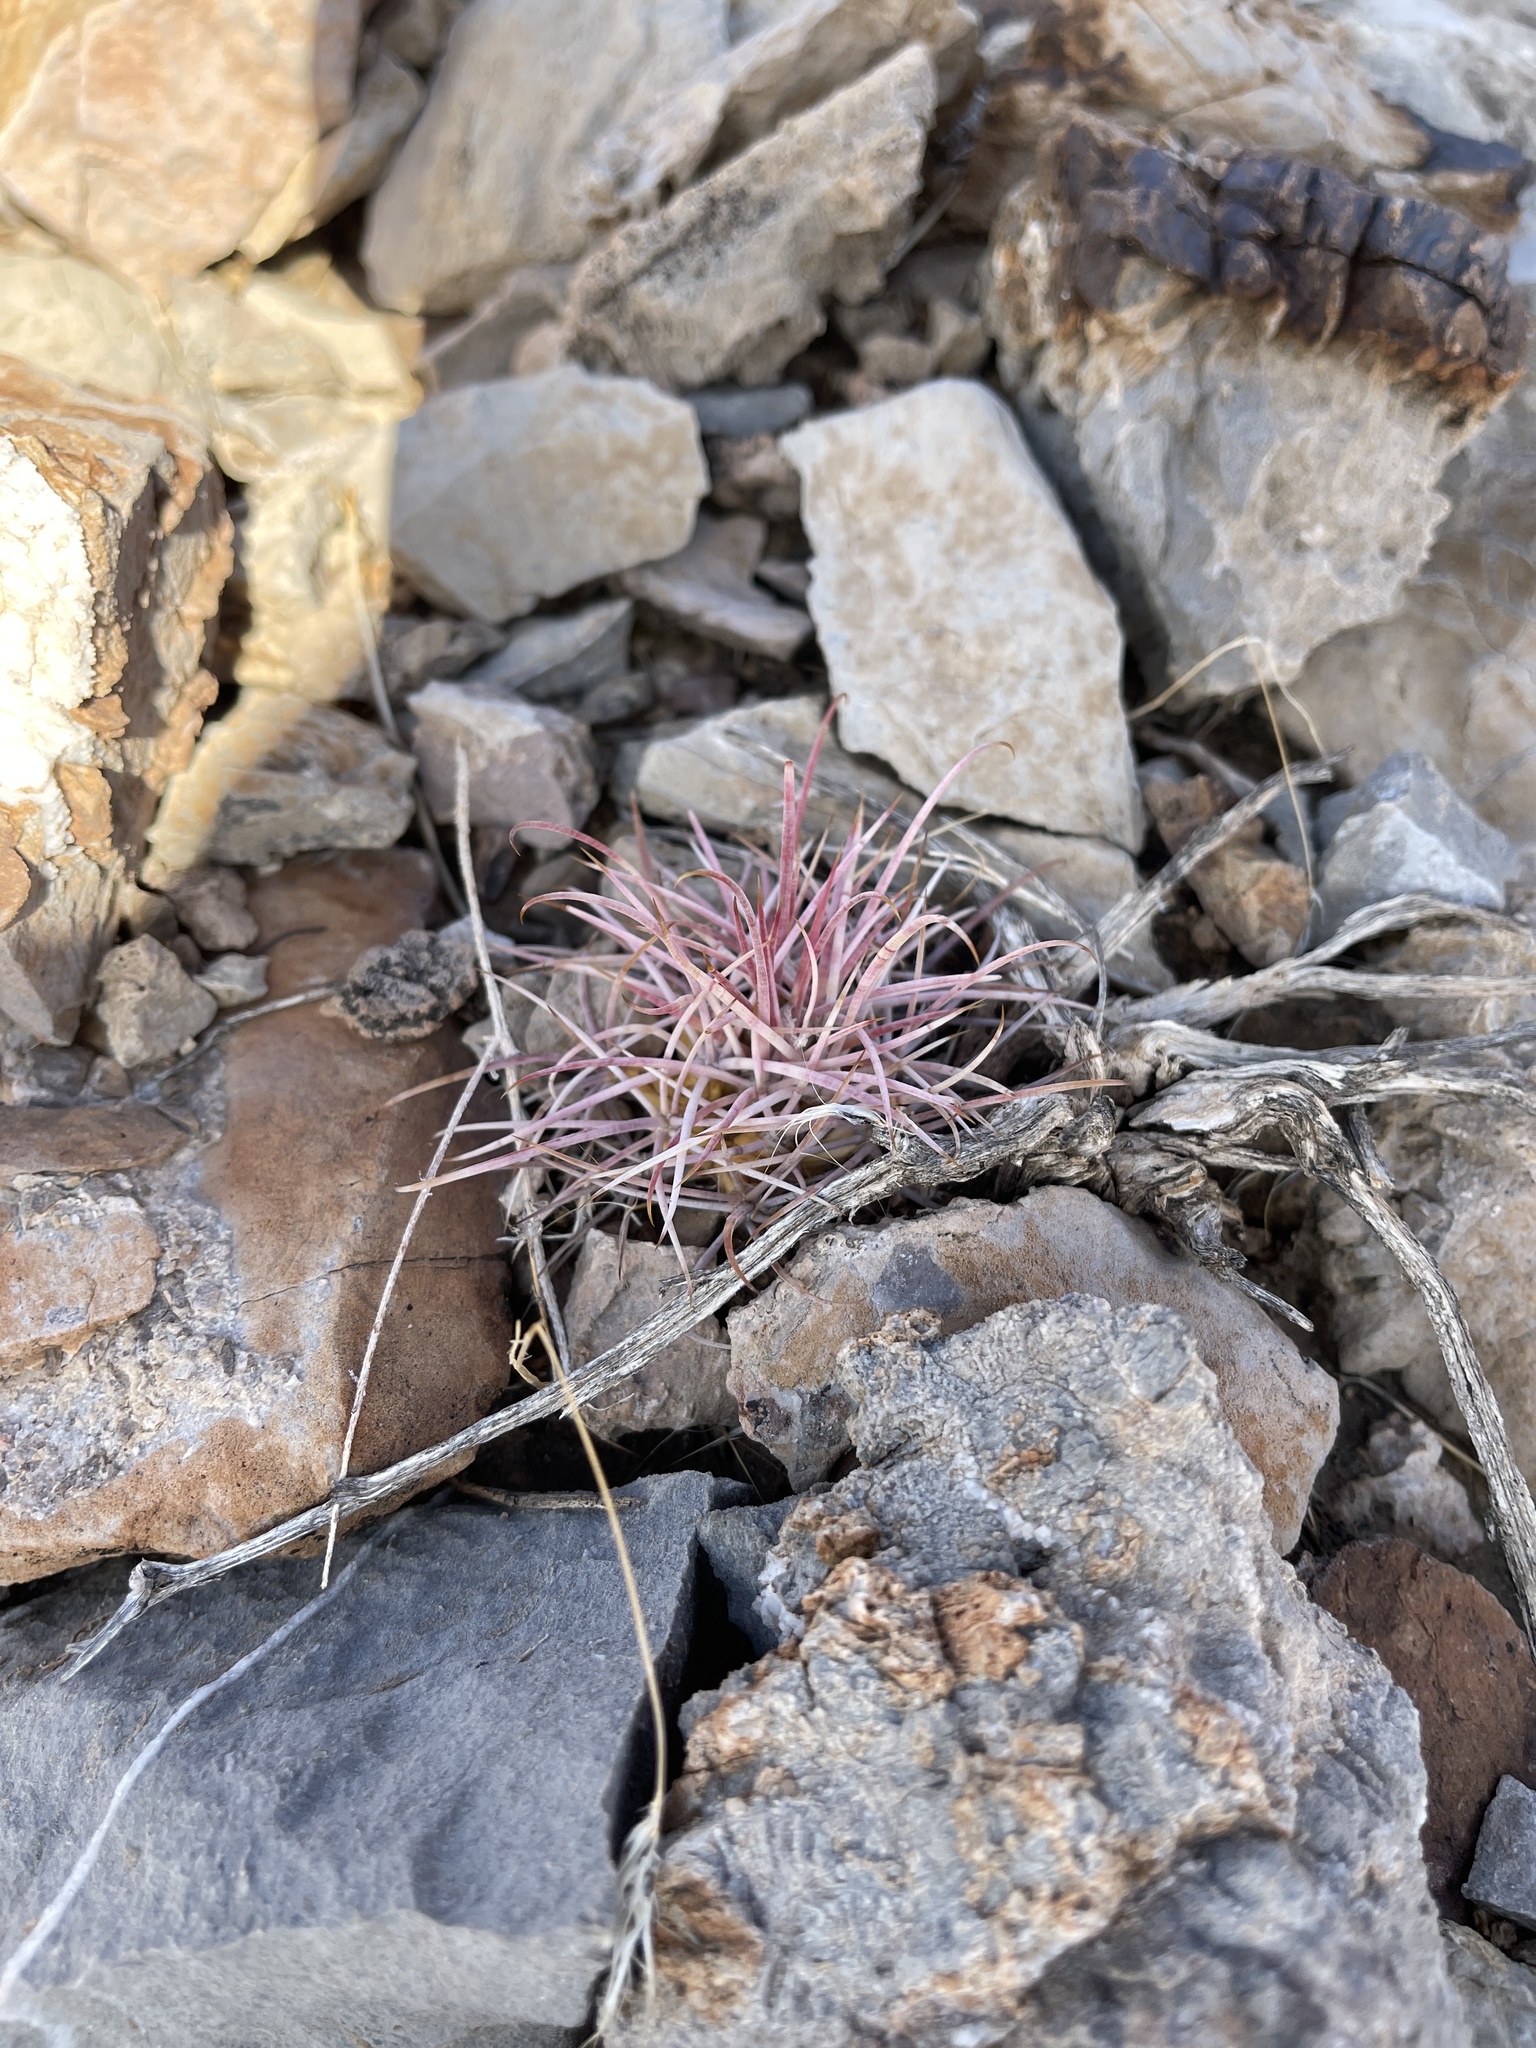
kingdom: Plantae
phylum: Tracheophyta
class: Magnoliopsida
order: Caryophyllales
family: Cactaceae
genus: Echinocactus
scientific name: Echinocactus polycephalus
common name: Cottontop cactus
